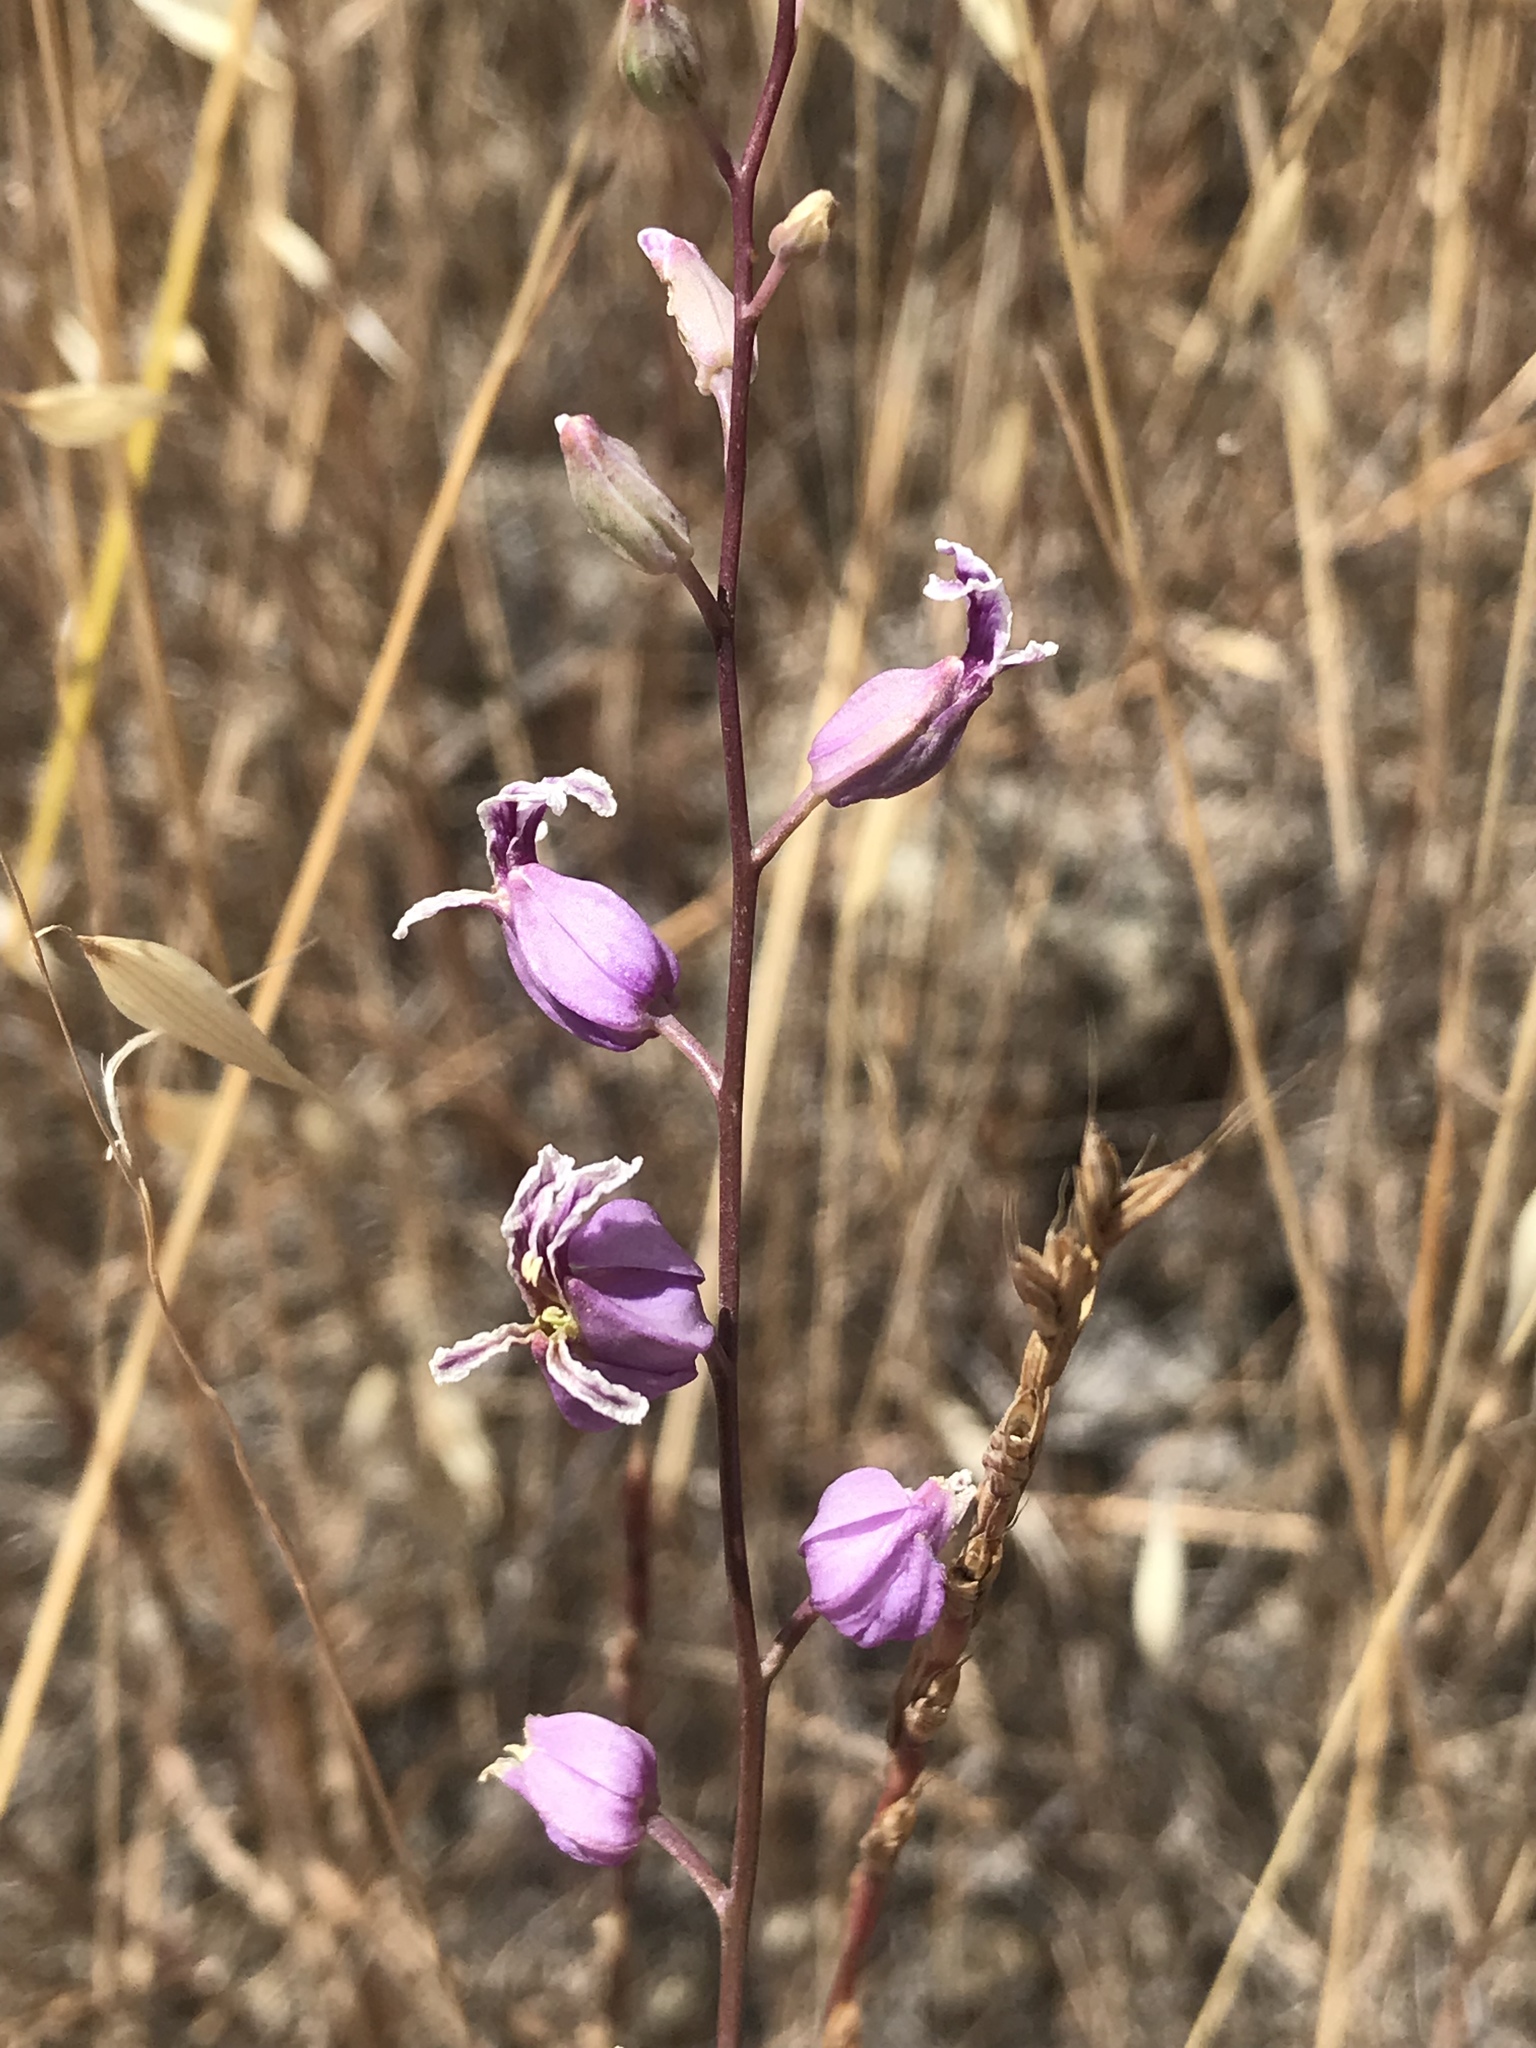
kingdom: Plantae
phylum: Tracheophyta
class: Magnoliopsida
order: Brassicales
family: Brassicaceae
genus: Streptanthus
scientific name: Streptanthus glandulosus
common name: Jewel-flower
